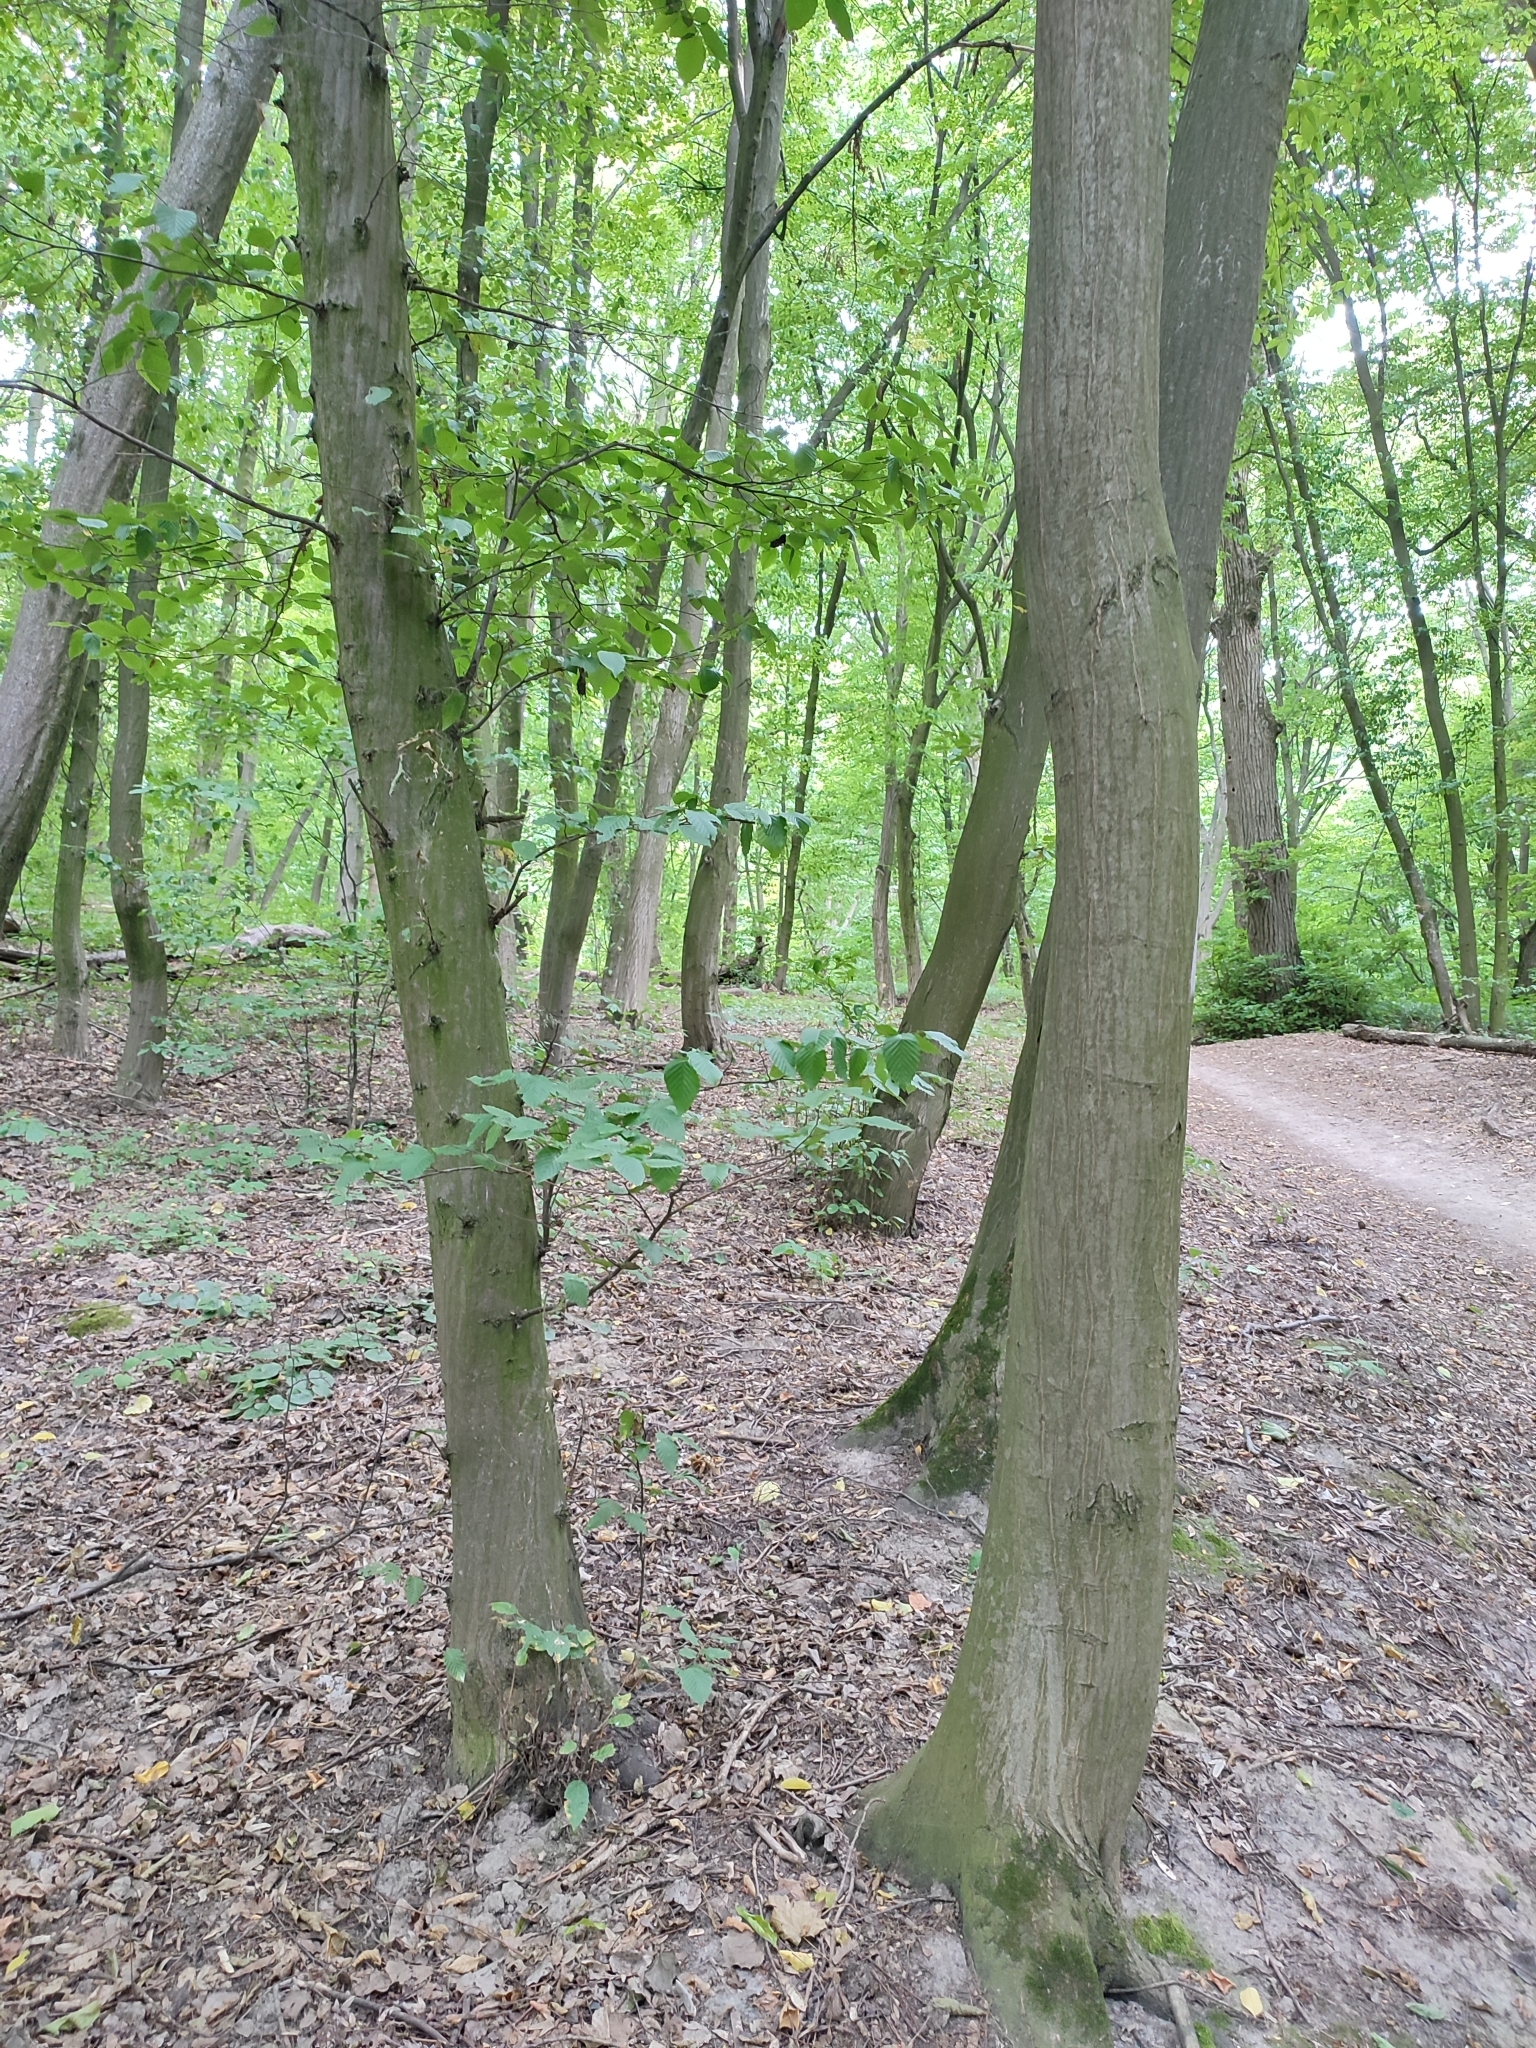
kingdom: Plantae
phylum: Tracheophyta
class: Magnoliopsida
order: Fagales
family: Betulaceae
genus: Carpinus
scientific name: Carpinus betulus
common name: Hornbeam
